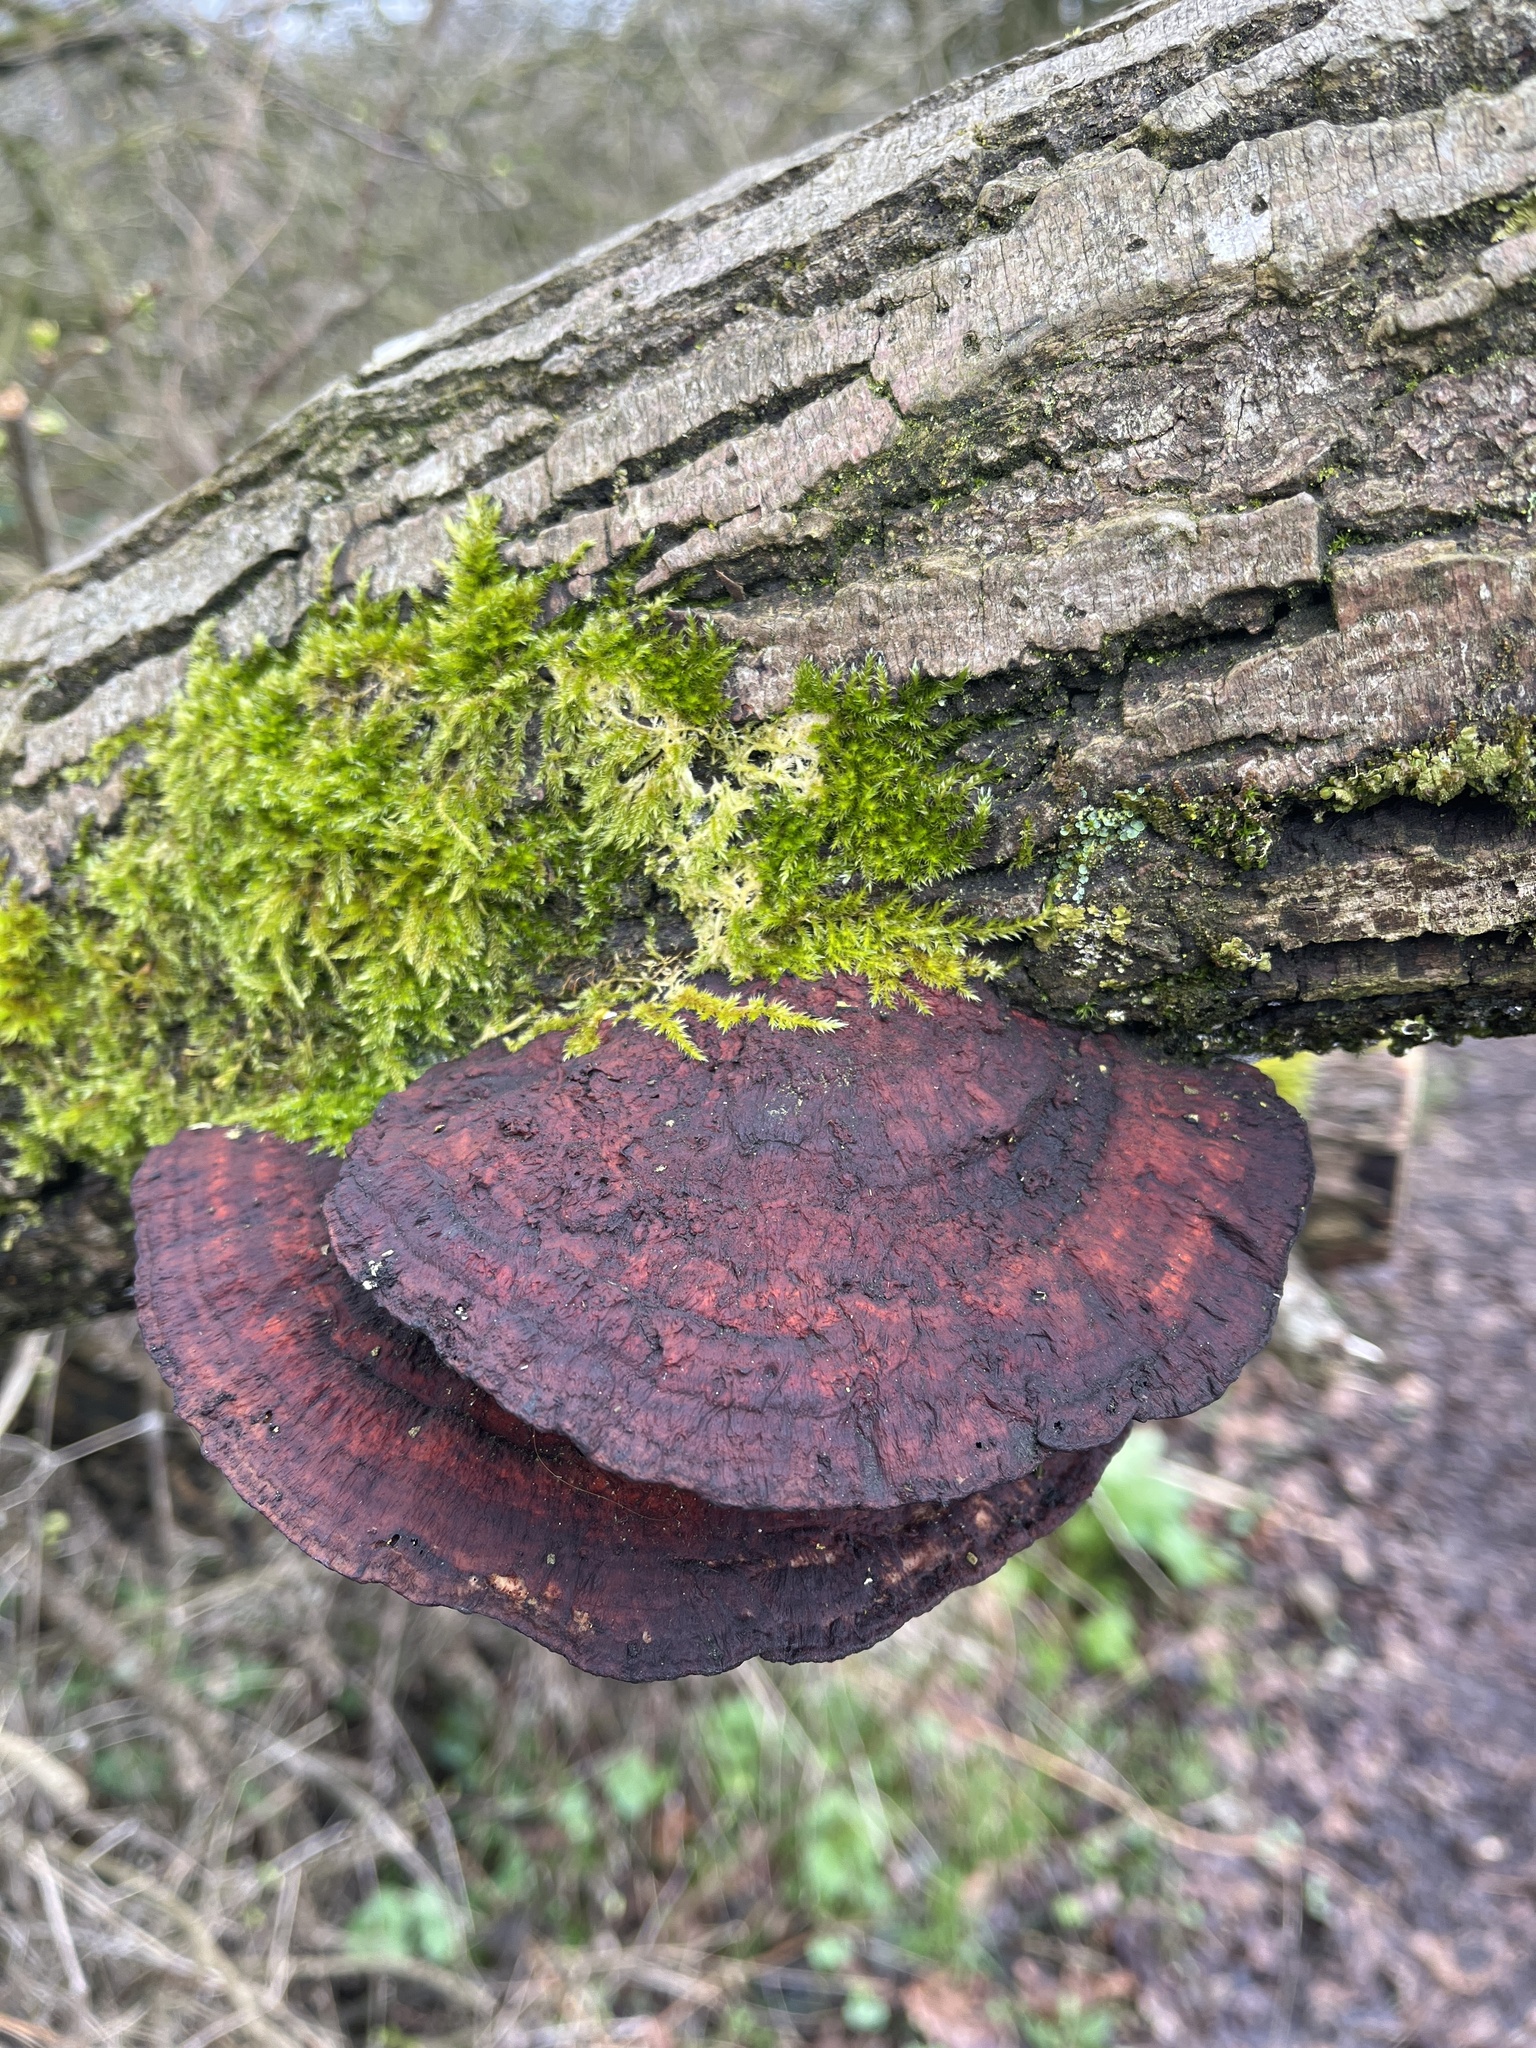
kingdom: Fungi
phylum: Basidiomycota
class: Agaricomycetes
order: Polyporales
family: Polyporaceae
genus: Daedaleopsis
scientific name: Daedaleopsis confragosa
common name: Blushing bracket
